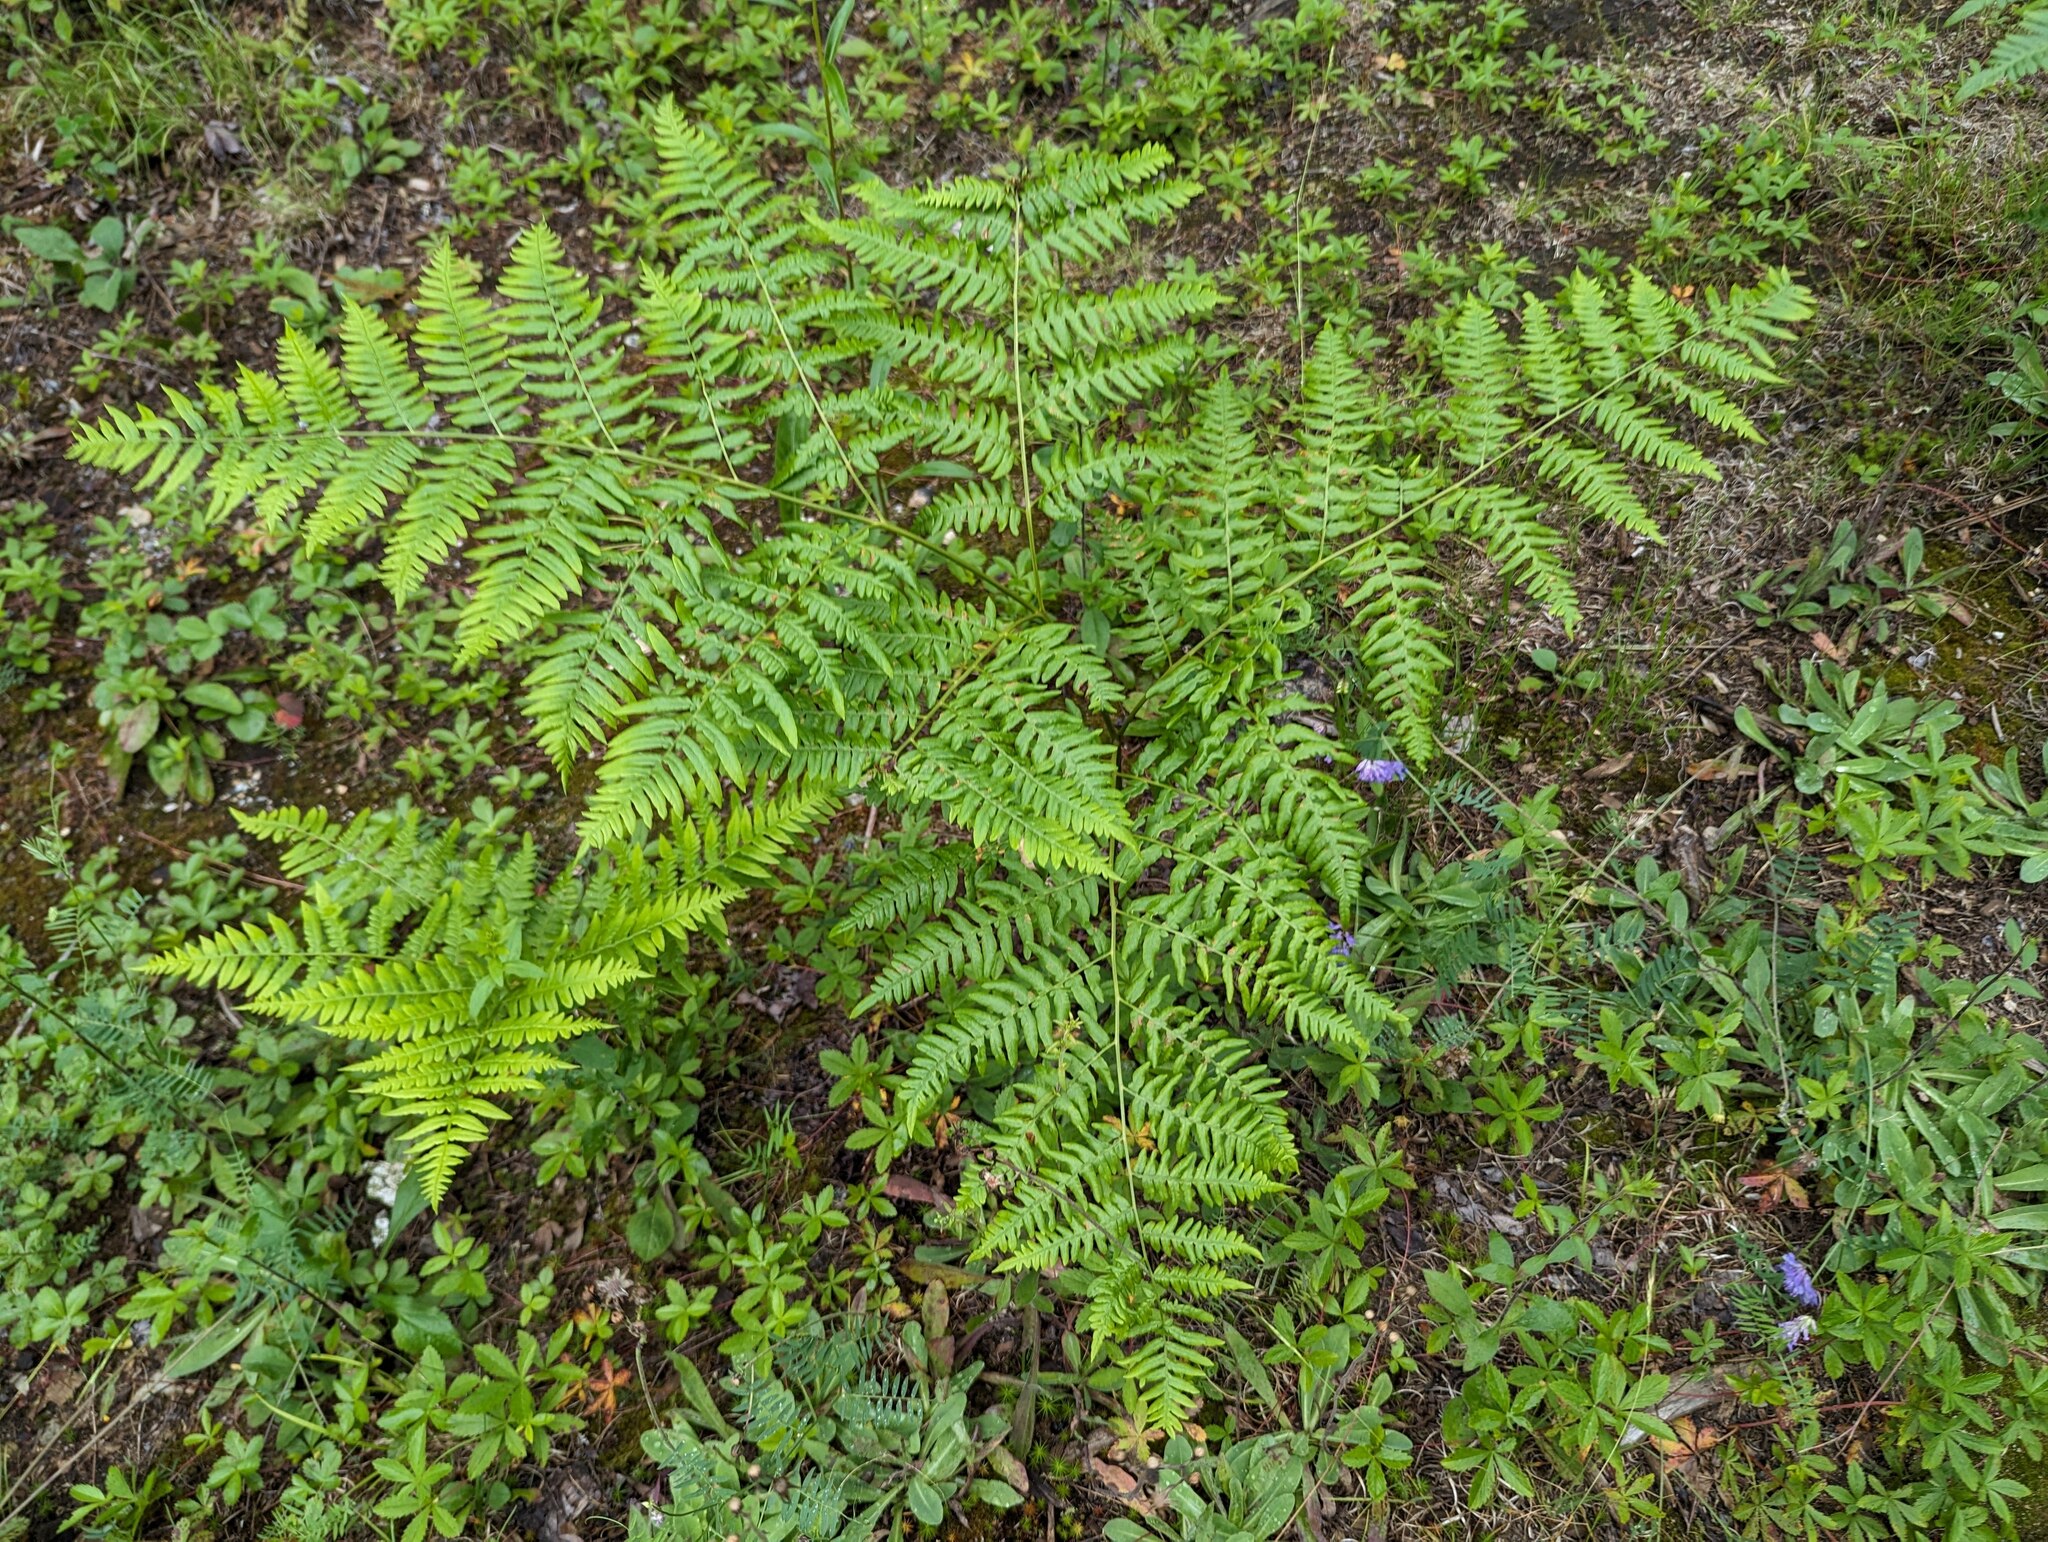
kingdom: Plantae
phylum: Tracheophyta
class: Polypodiopsida
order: Polypodiales
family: Dennstaedtiaceae
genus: Pteridium
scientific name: Pteridium aquilinum
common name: Bracken
